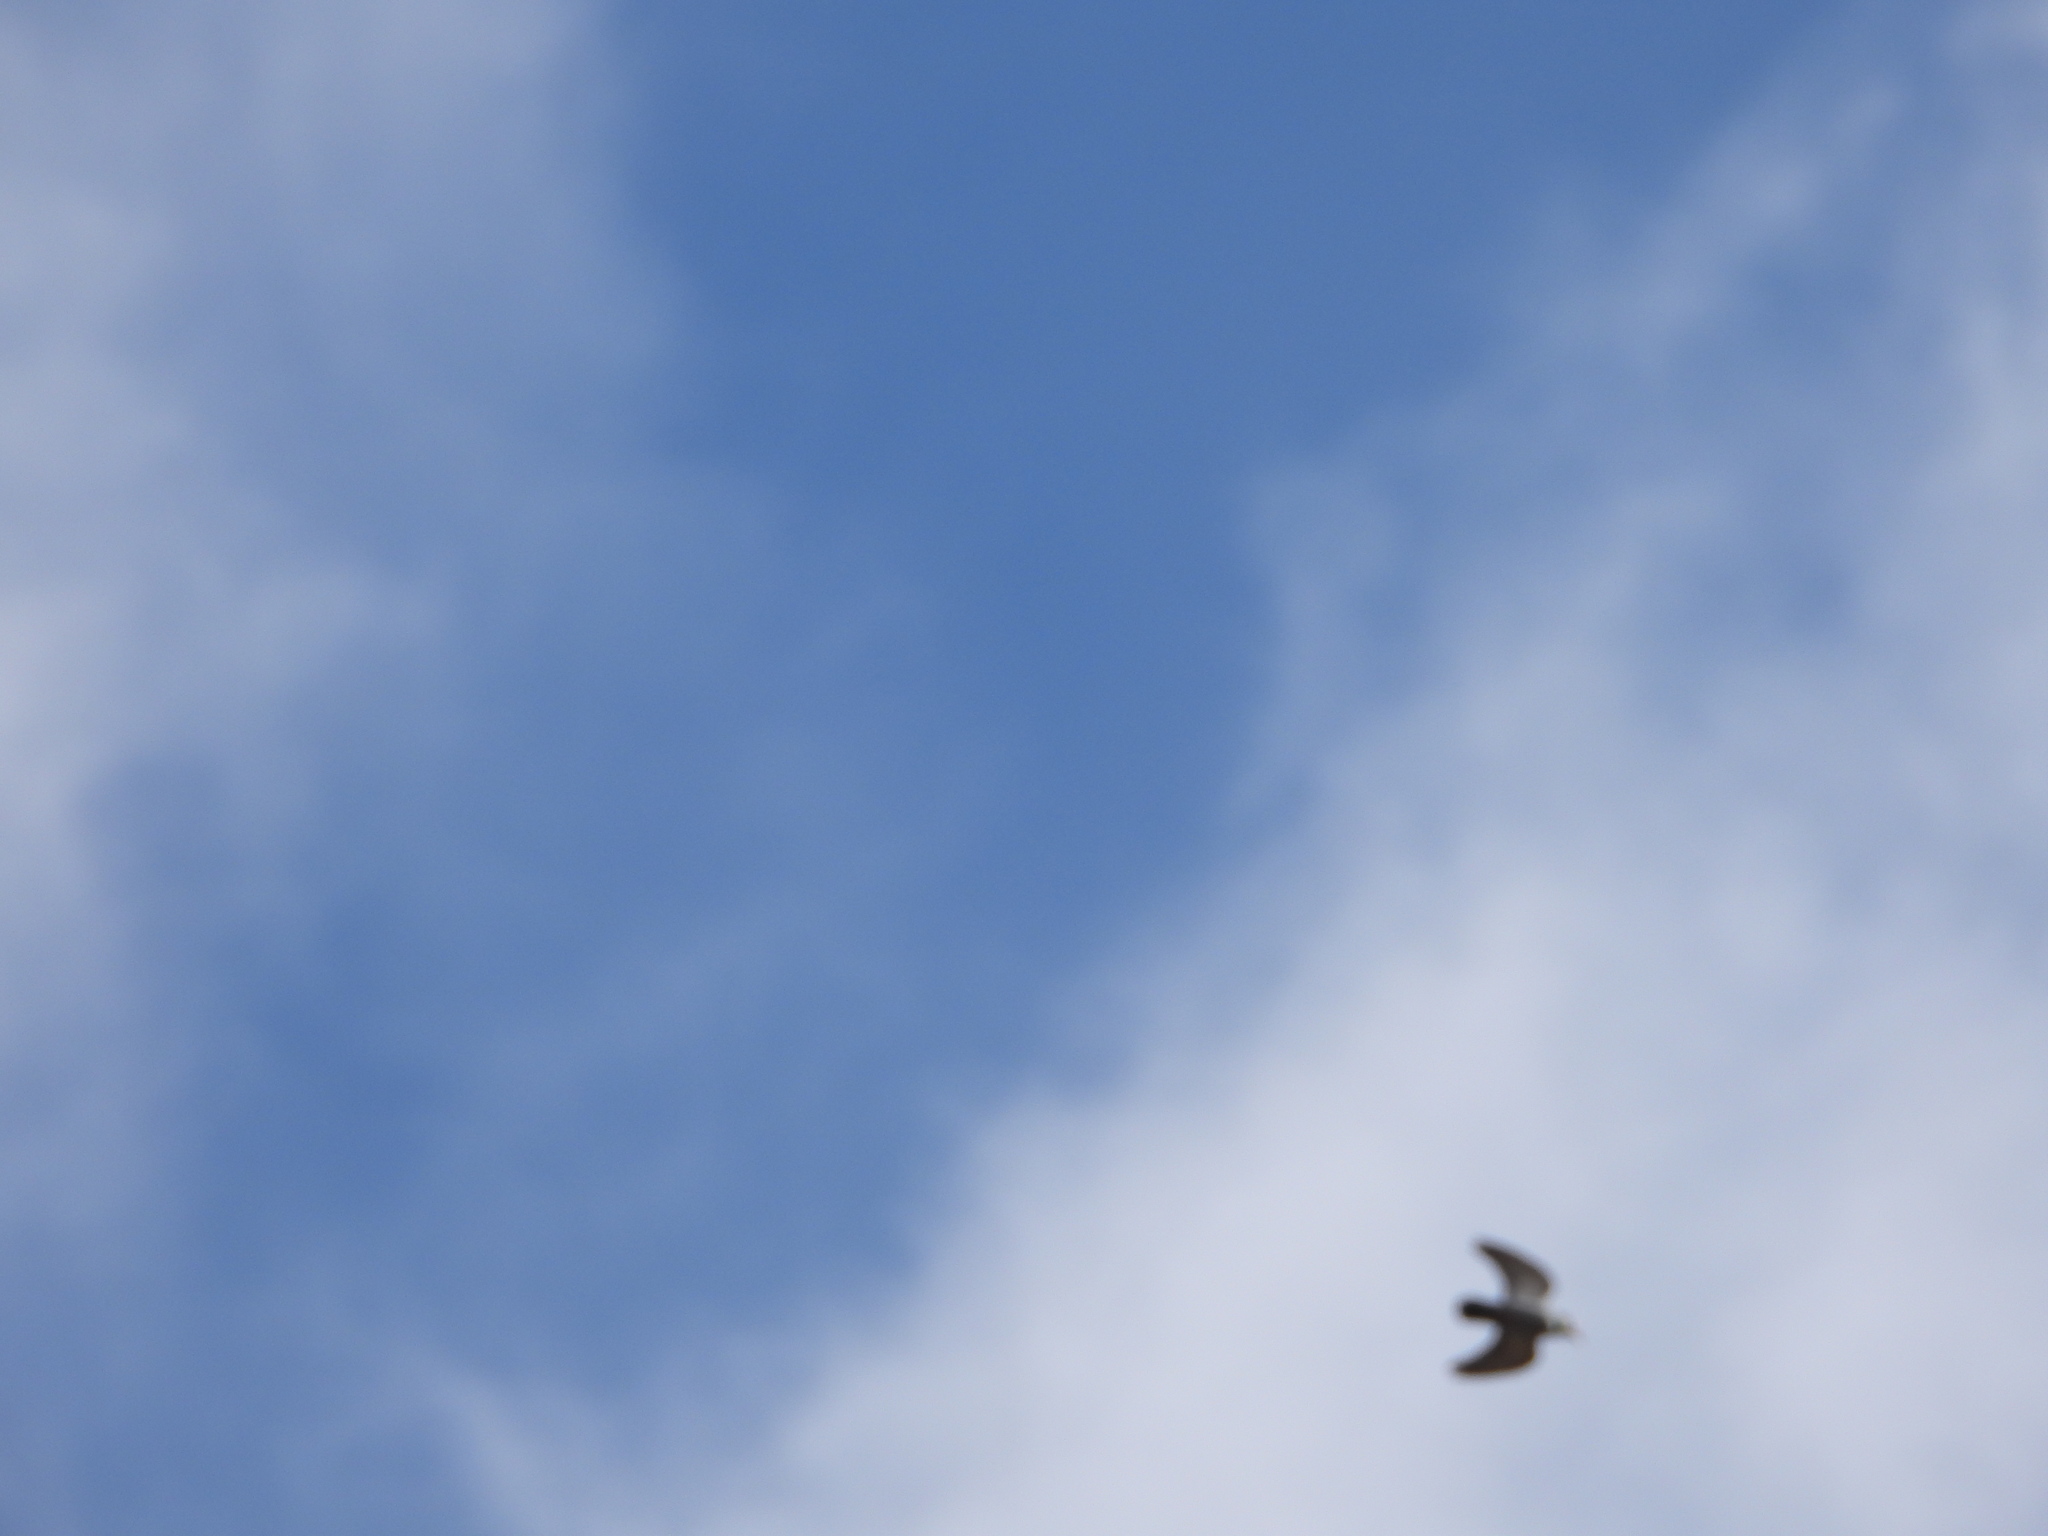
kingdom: Animalia
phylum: Chordata
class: Aves
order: Columbiformes
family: Columbidae
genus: Columba
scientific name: Columba livia
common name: Rock pigeon
